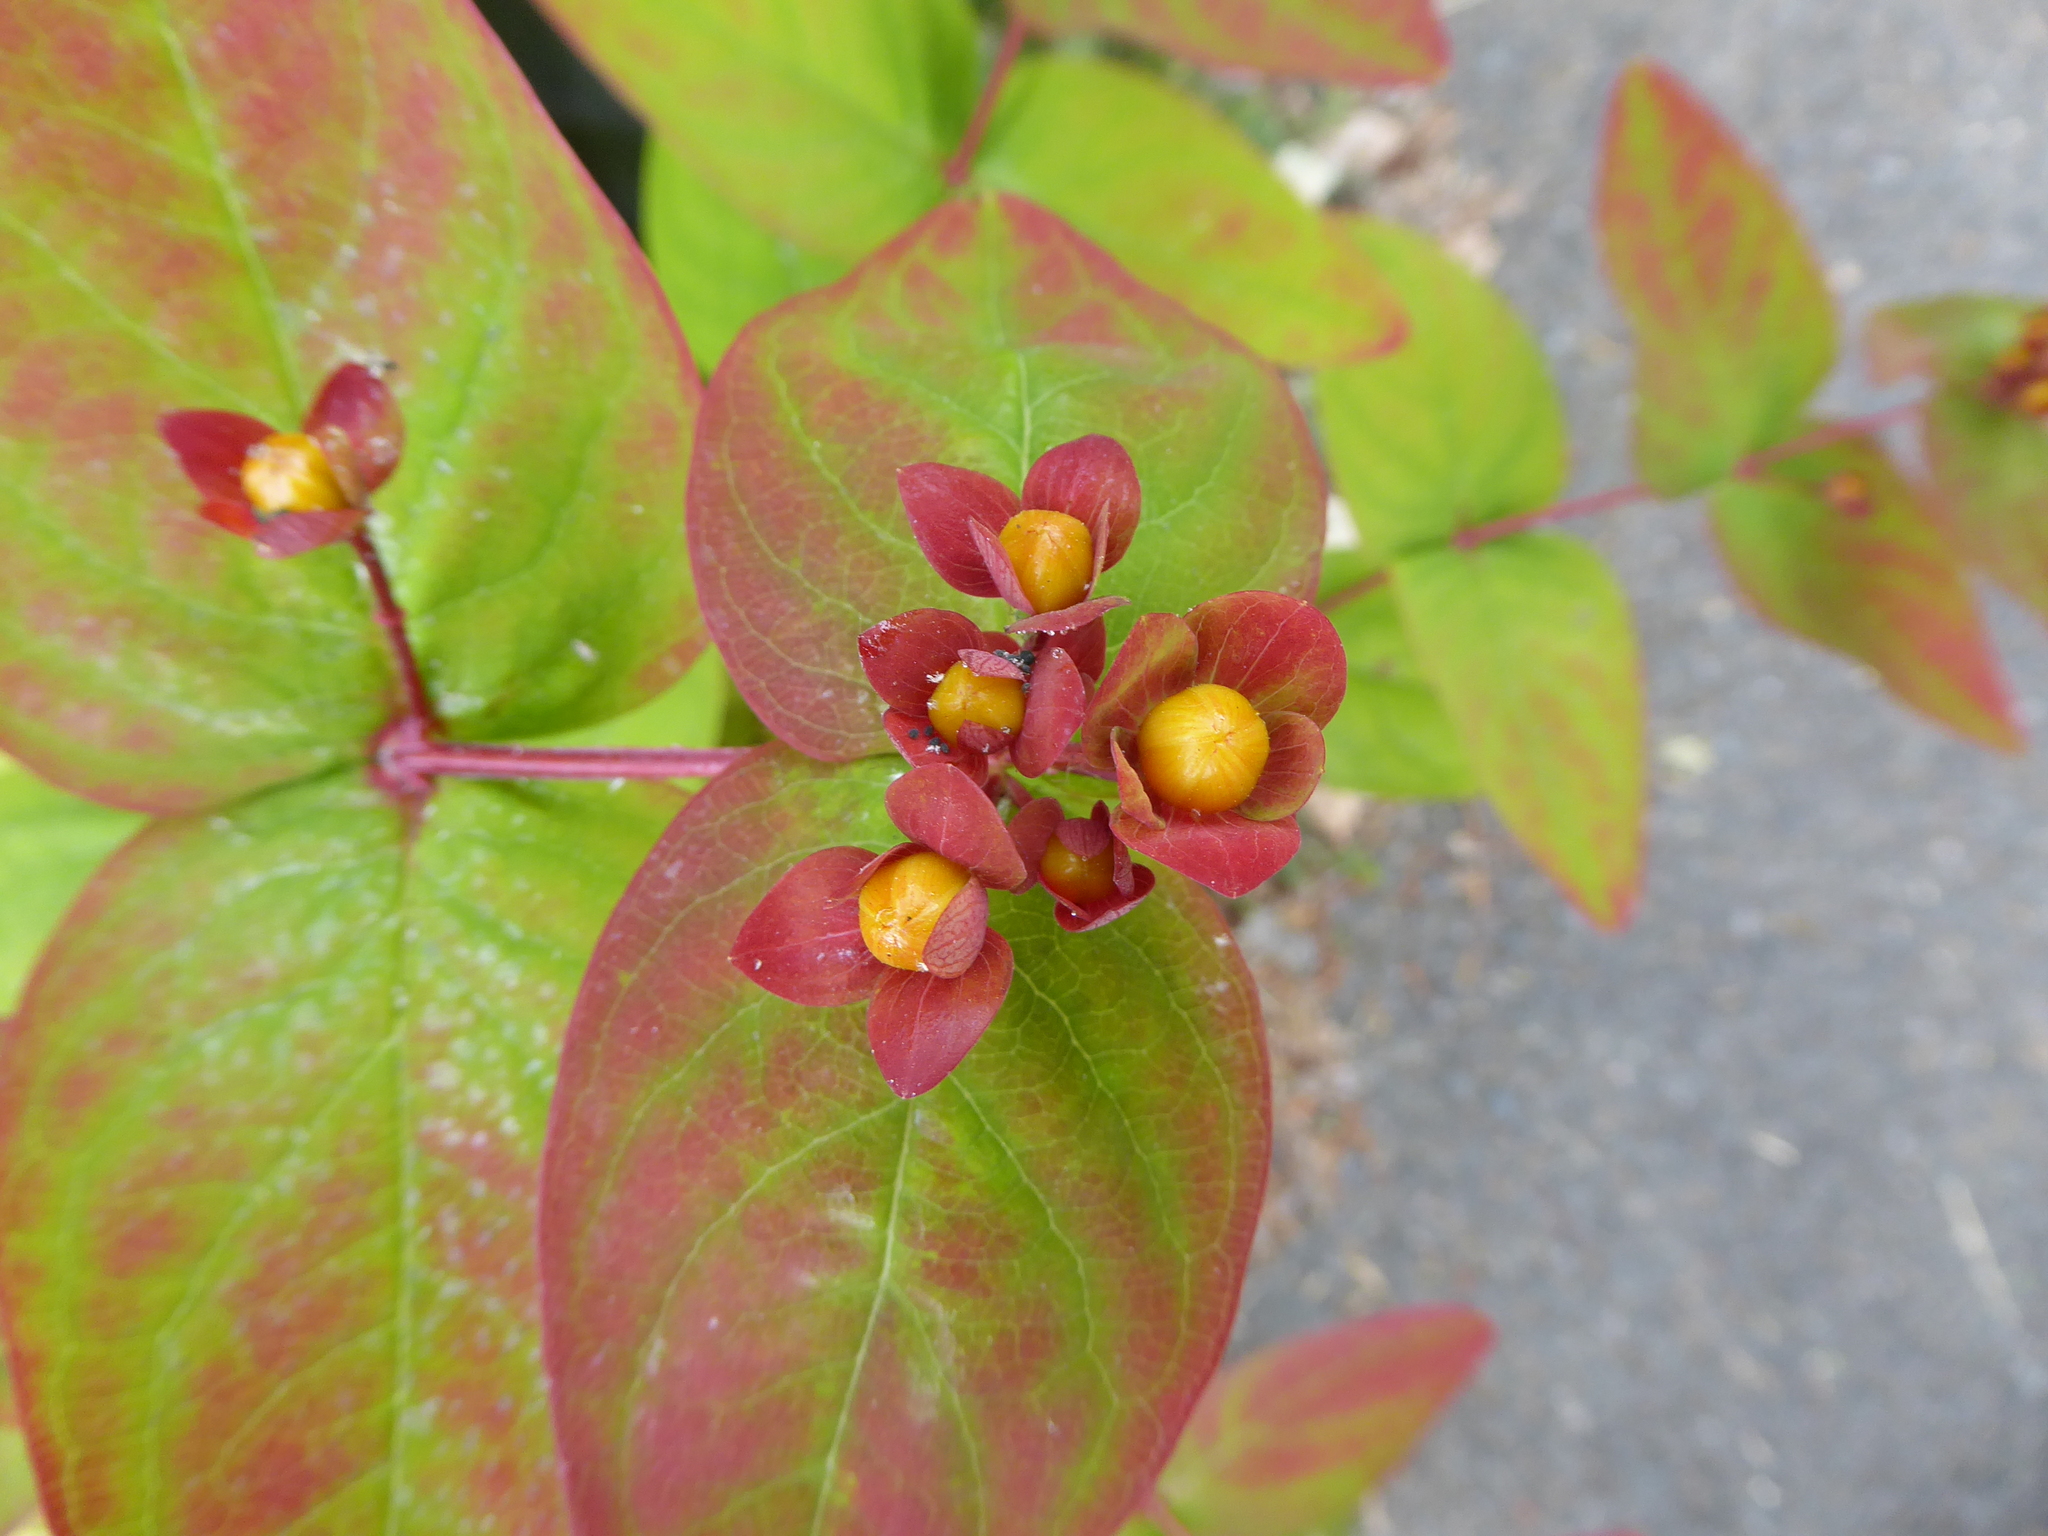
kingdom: Plantae
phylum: Tracheophyta
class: Magnoliopsida
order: Malpighiales
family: Hypericaceae
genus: Hypericum
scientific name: Hypericum androsaemum
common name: Sweet-amber
